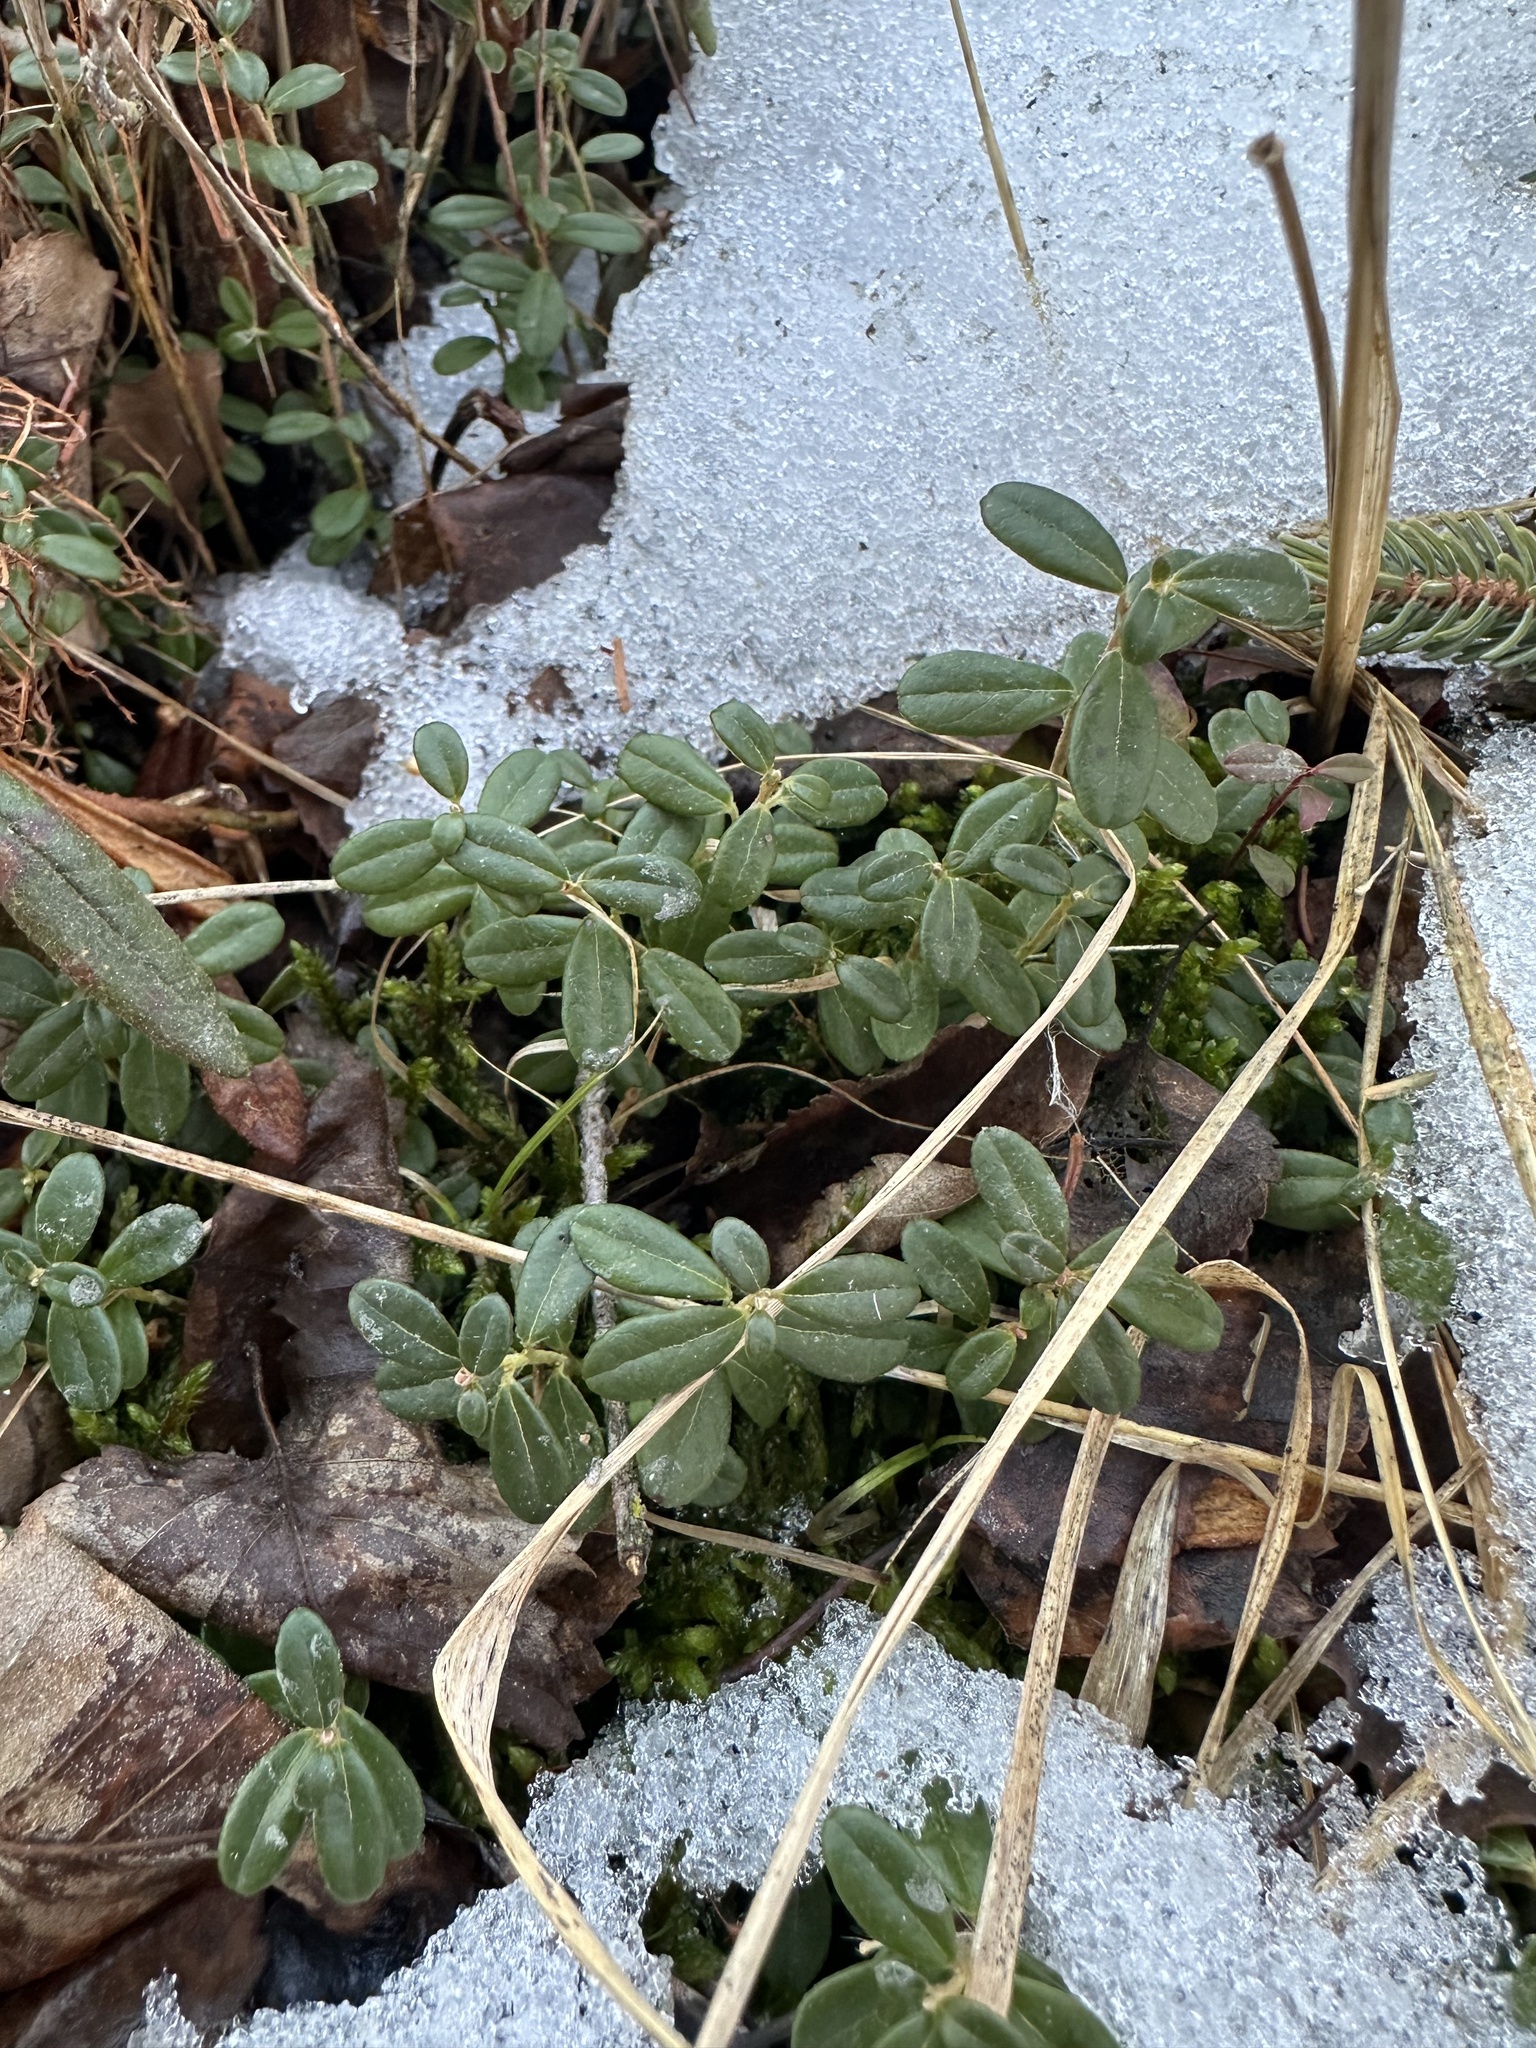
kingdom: Plantae
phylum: Tracheophyta
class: Magnoliopsida
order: Ericales
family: Ericaceae
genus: Vaccinium
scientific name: Vaccinium vitis-idaea
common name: Cowberry
